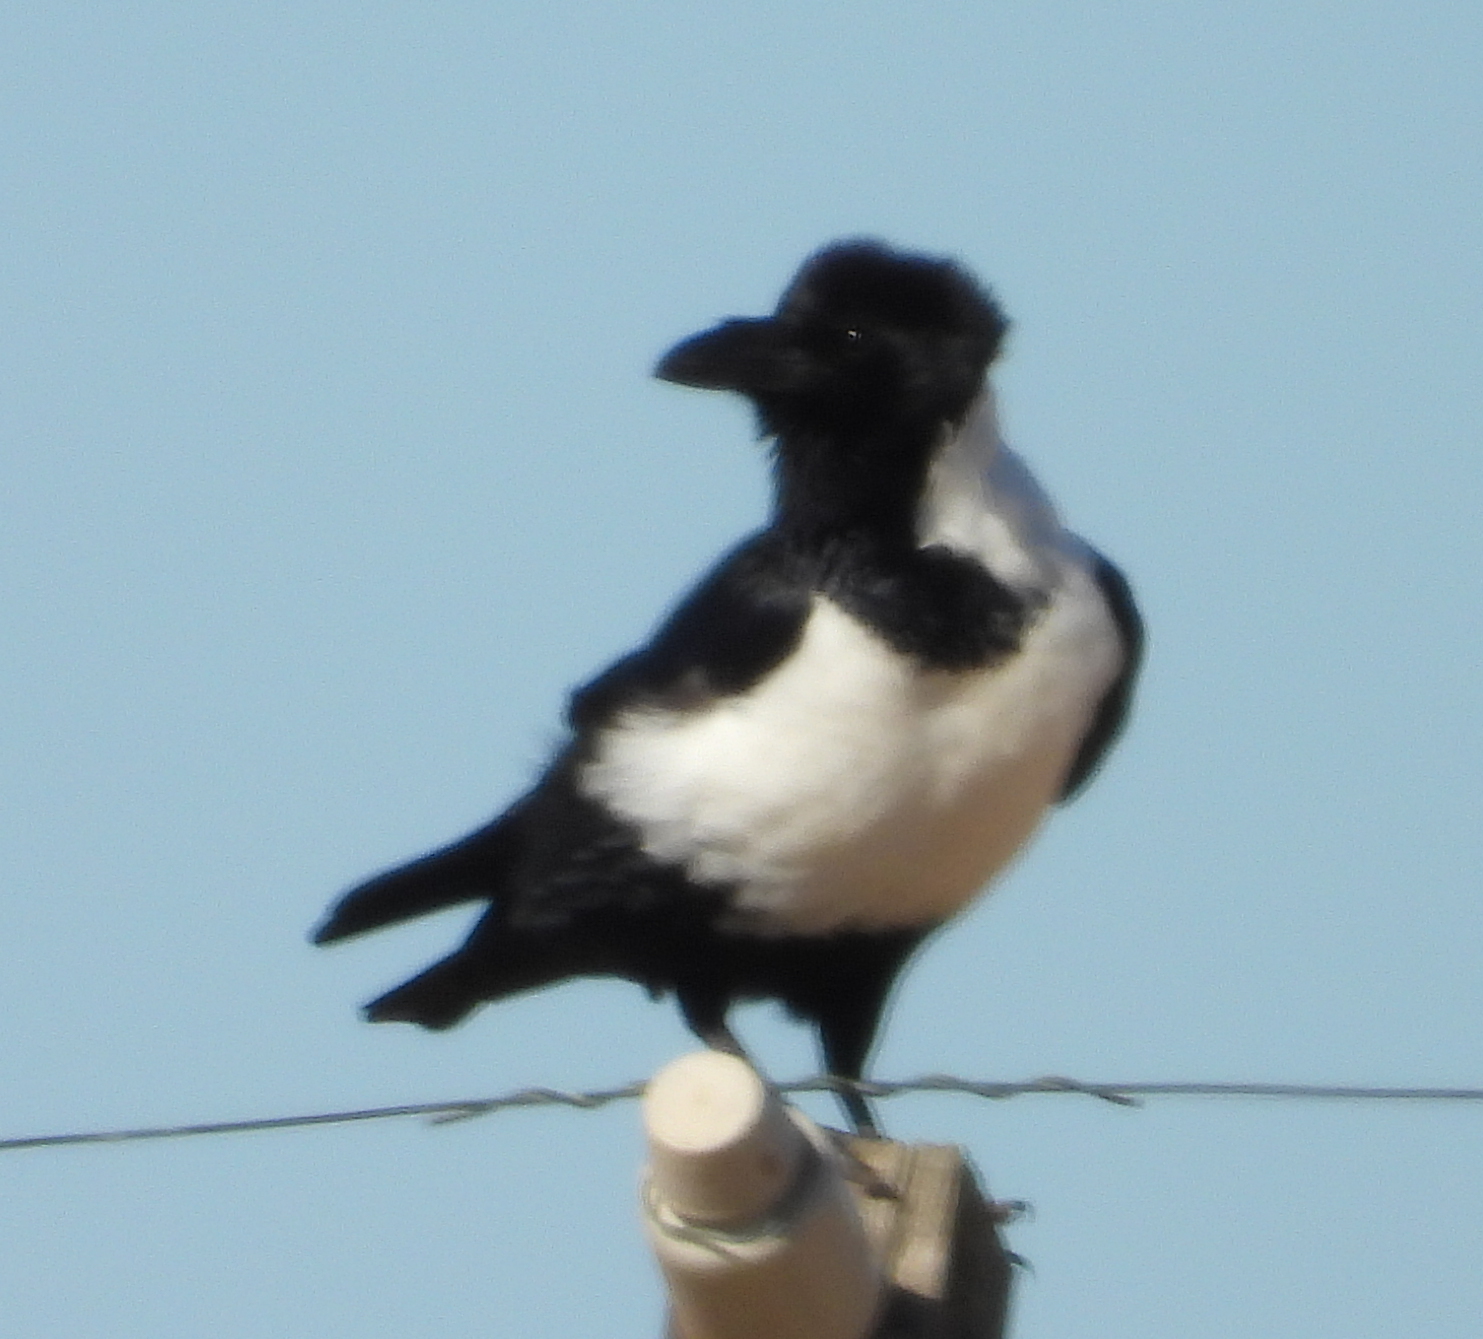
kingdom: Animalia
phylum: Chordata
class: Aves
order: Passeriformes
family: Corvidae
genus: Corvus
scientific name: Corvus albus
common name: Pied crow
